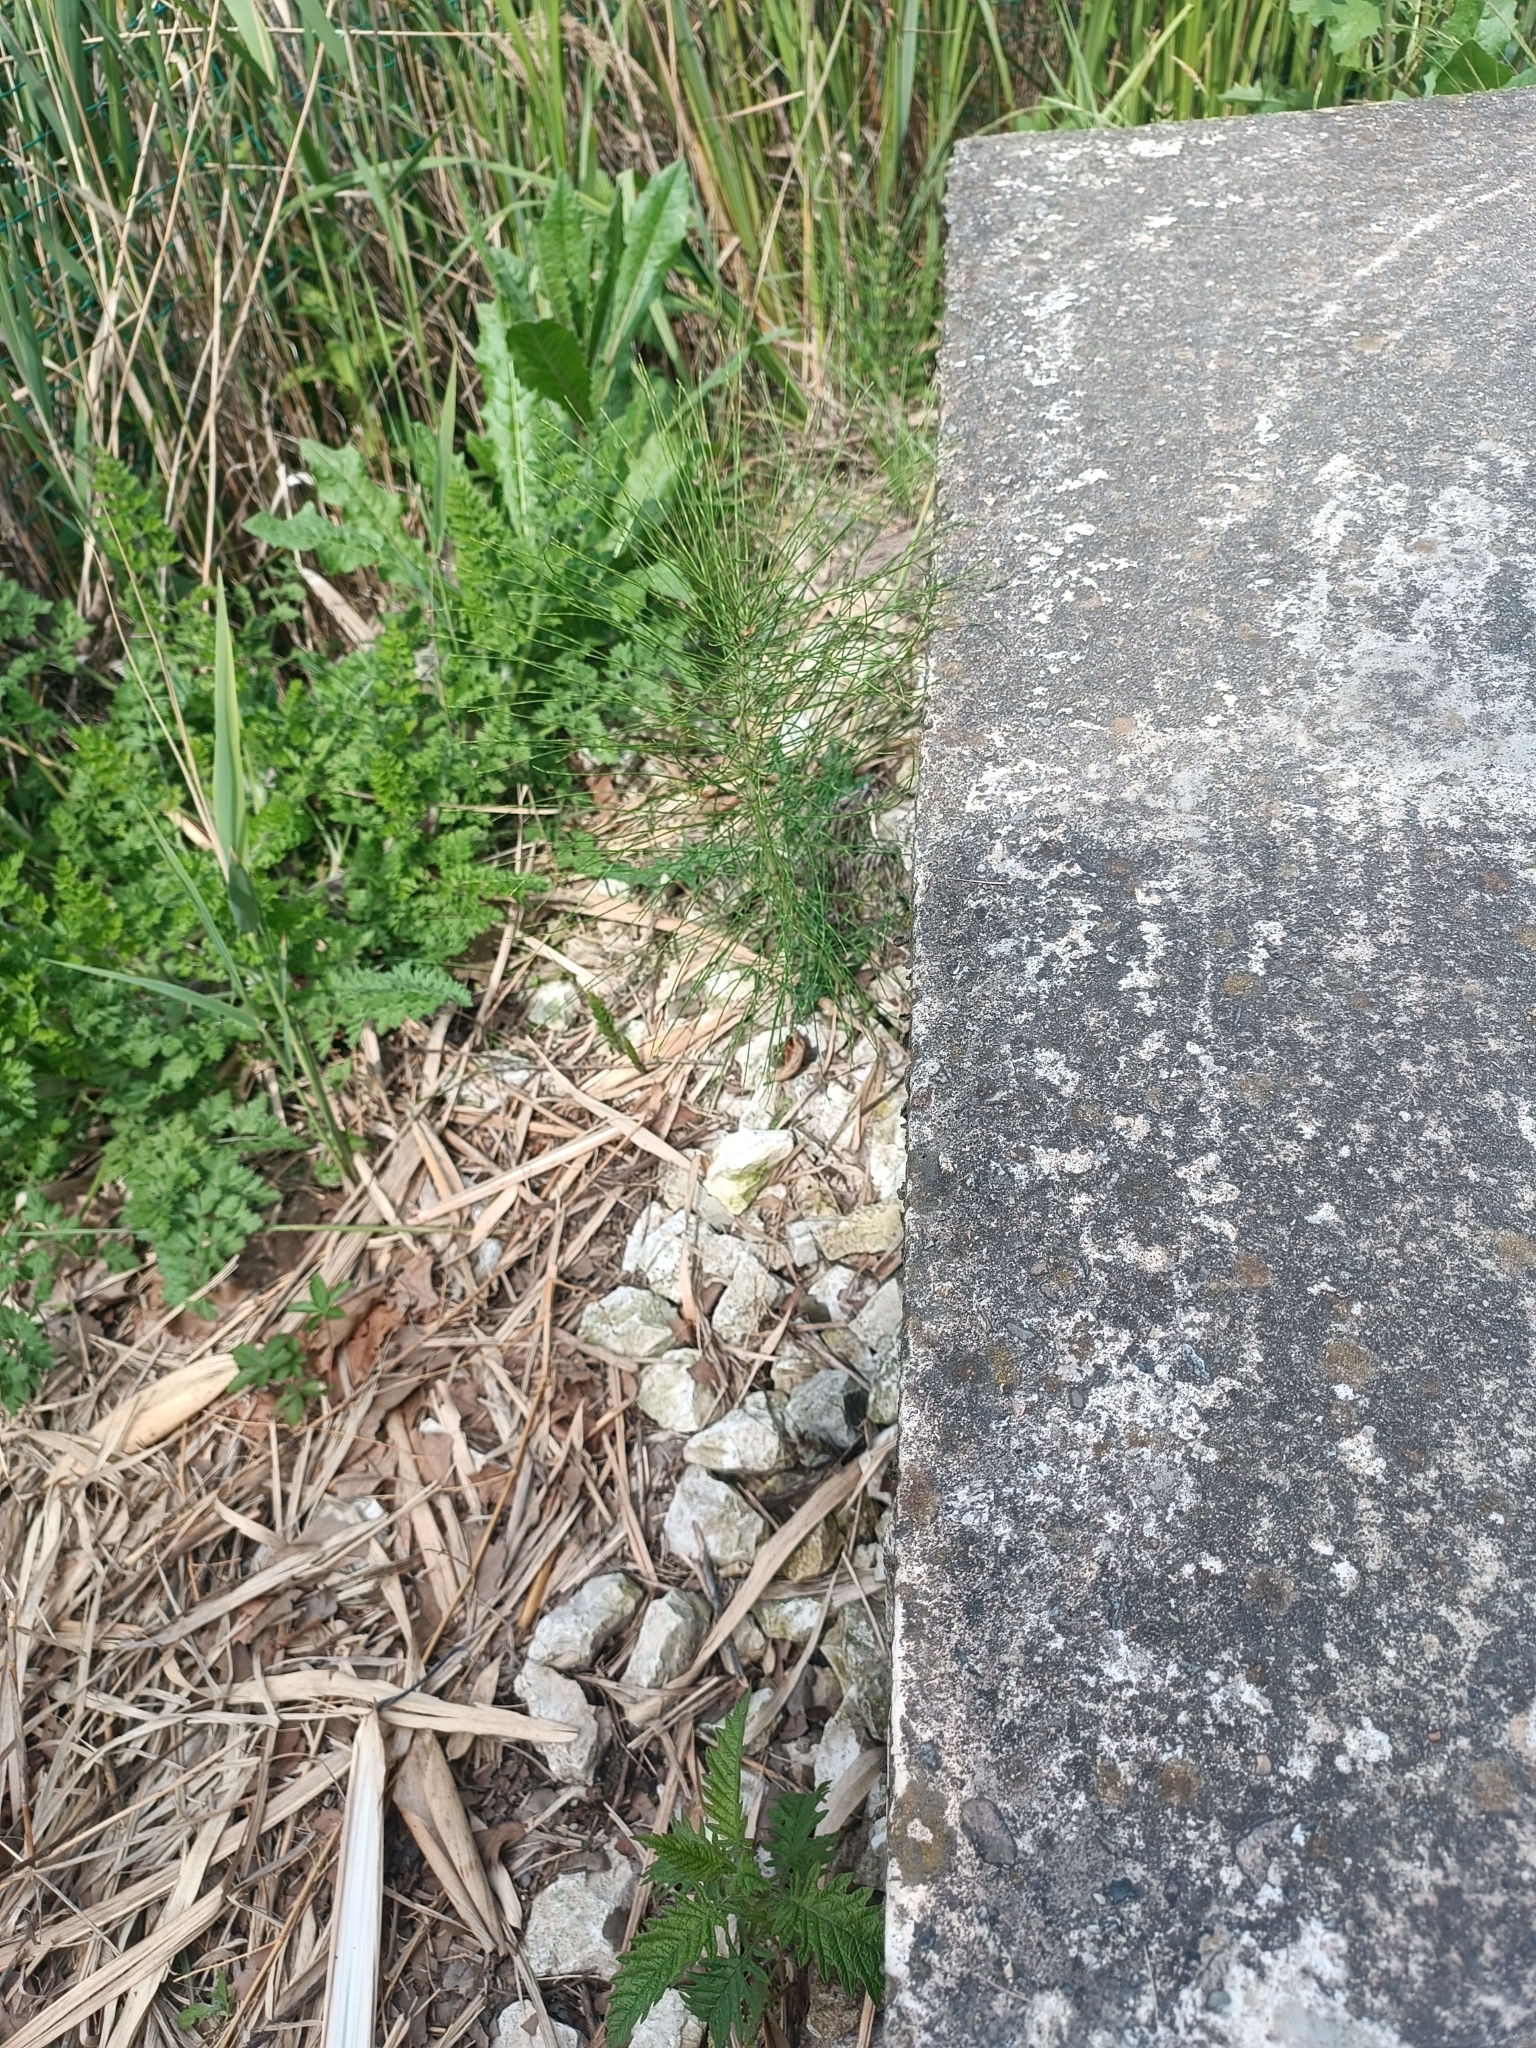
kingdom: Plantae
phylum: Tracheophyta
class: Polypodiopsida
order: Equisetales
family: Equisetaceae
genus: Equisetum
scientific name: Equisetum telmateia
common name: Great horsetail
